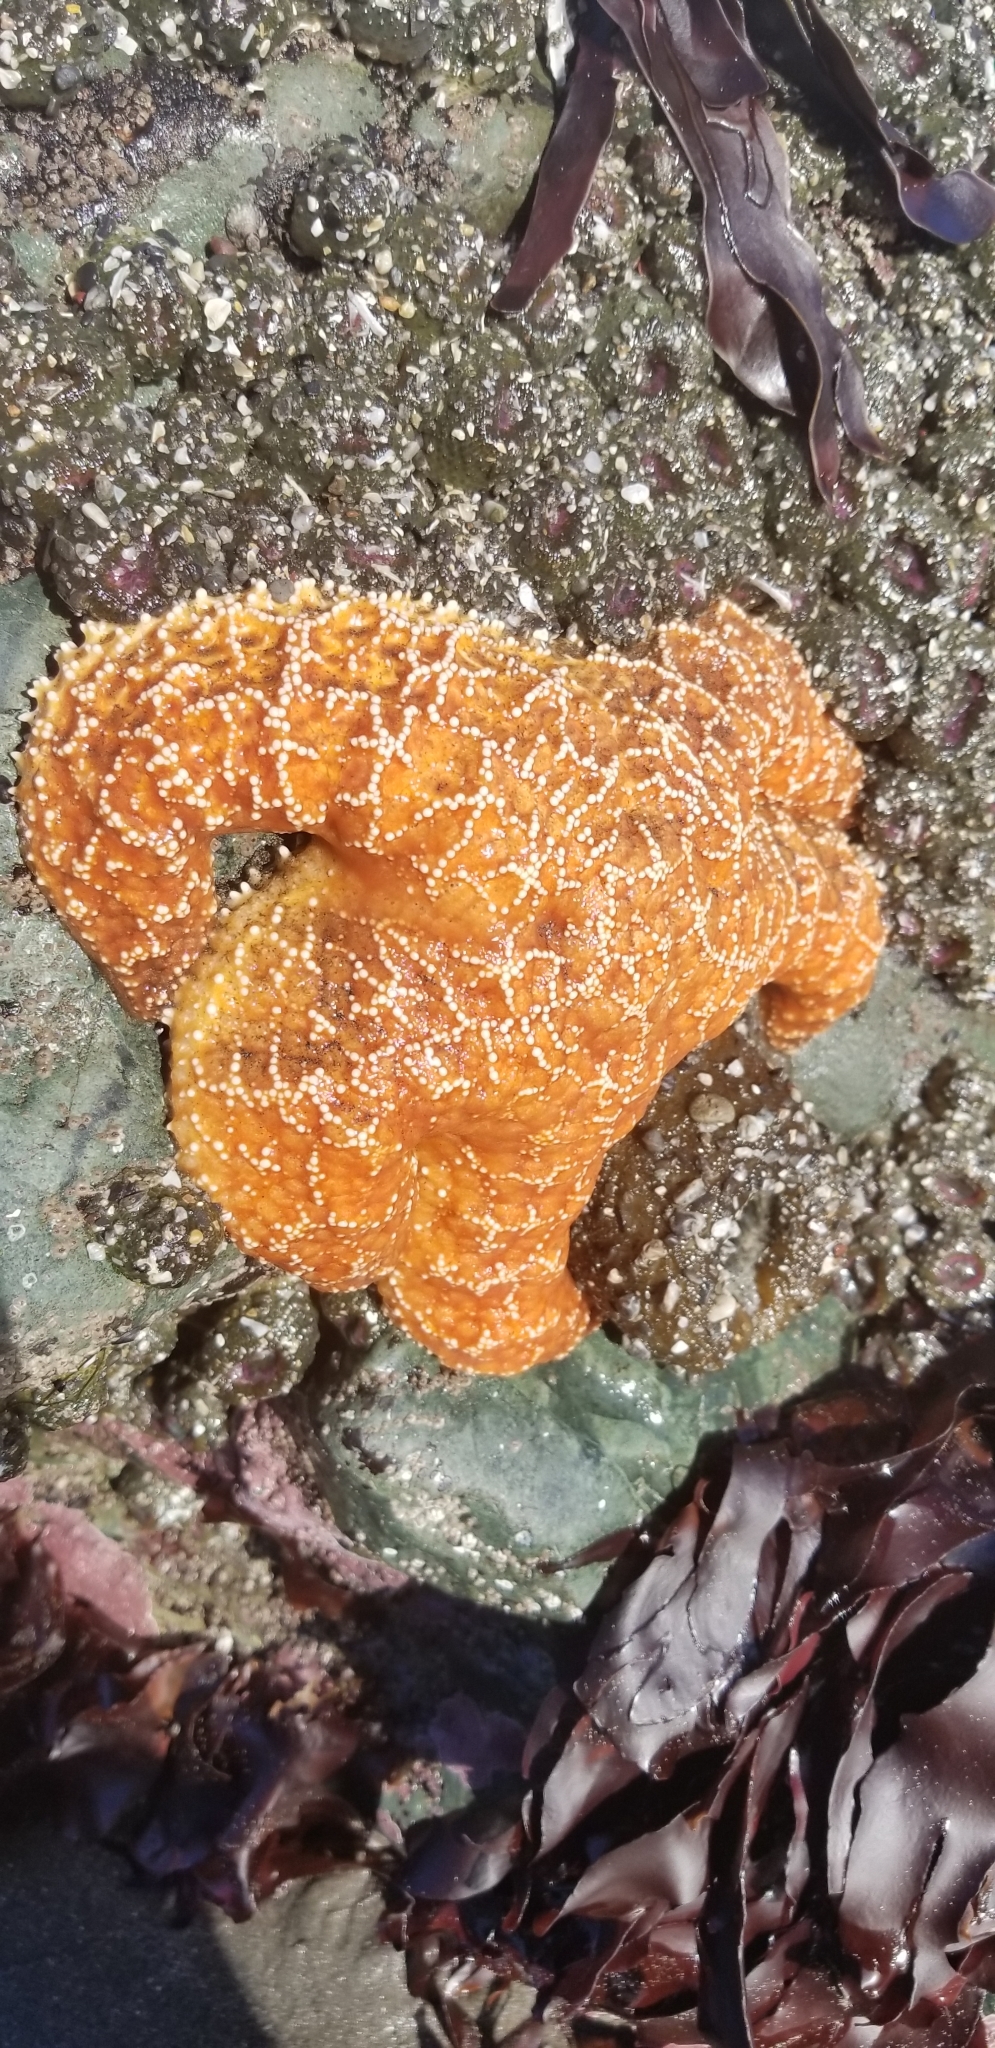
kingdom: Animalia
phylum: Echinodermata
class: Asteroidea
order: Forcipulatida
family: Asteriidae
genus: Pisaster
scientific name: Pisaster ochraceus
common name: Ochre stars
